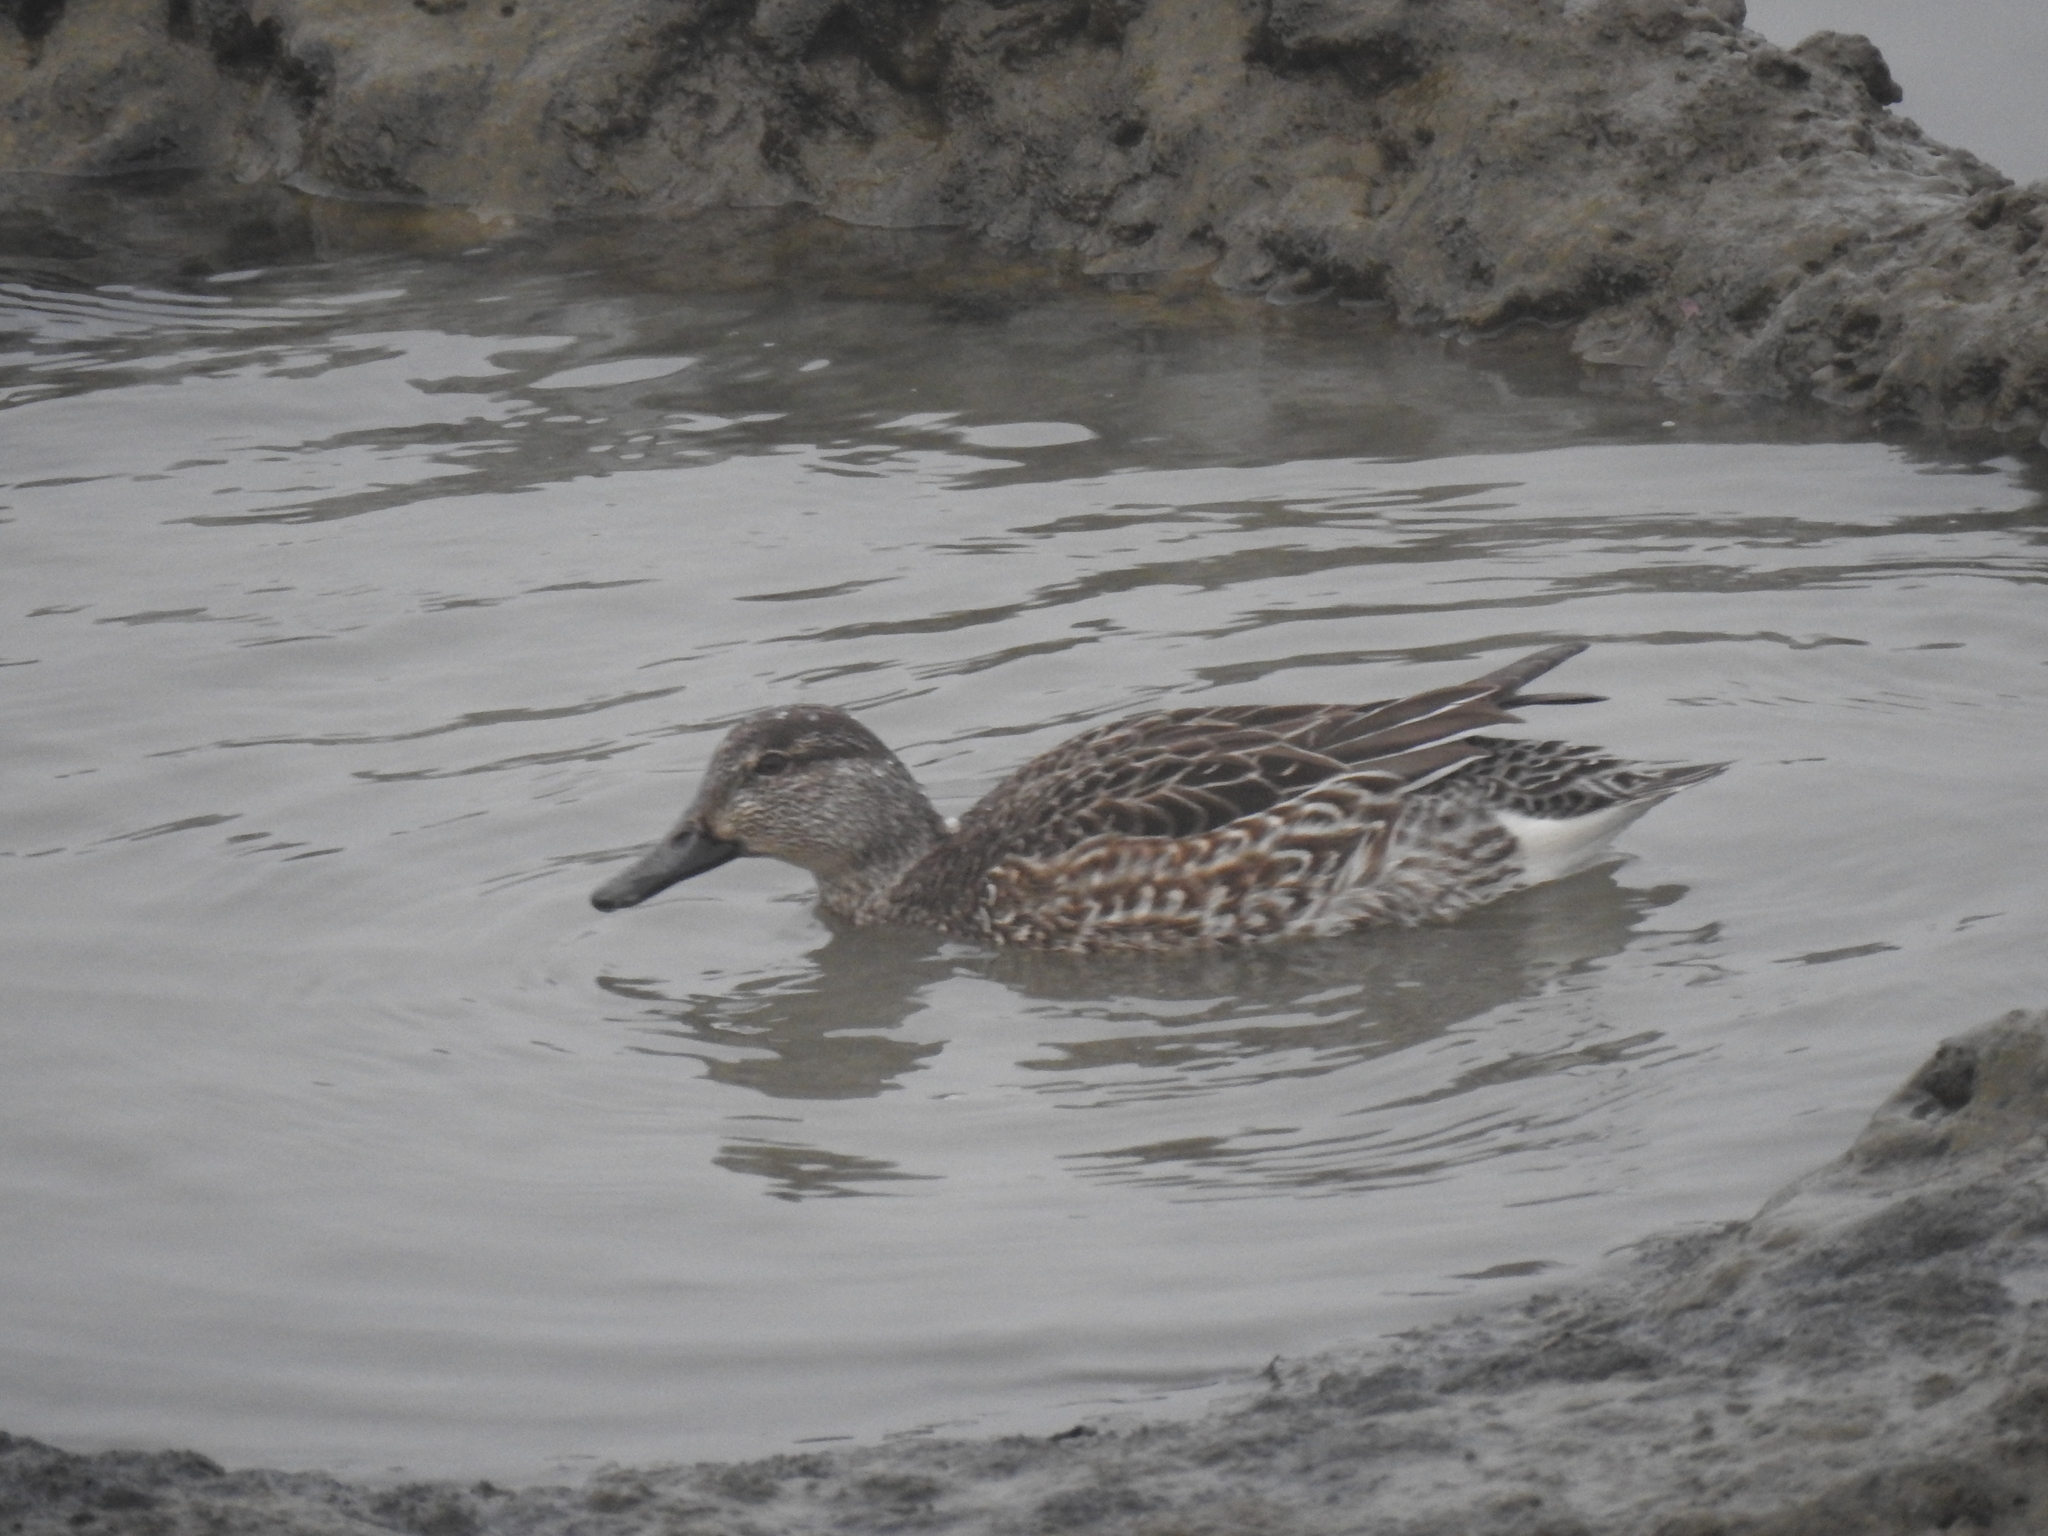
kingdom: Animalia
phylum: Chordata
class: Aves
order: Anseriformes
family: Anatidae
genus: Anas
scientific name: Anas crecca
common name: Eurasian teal
